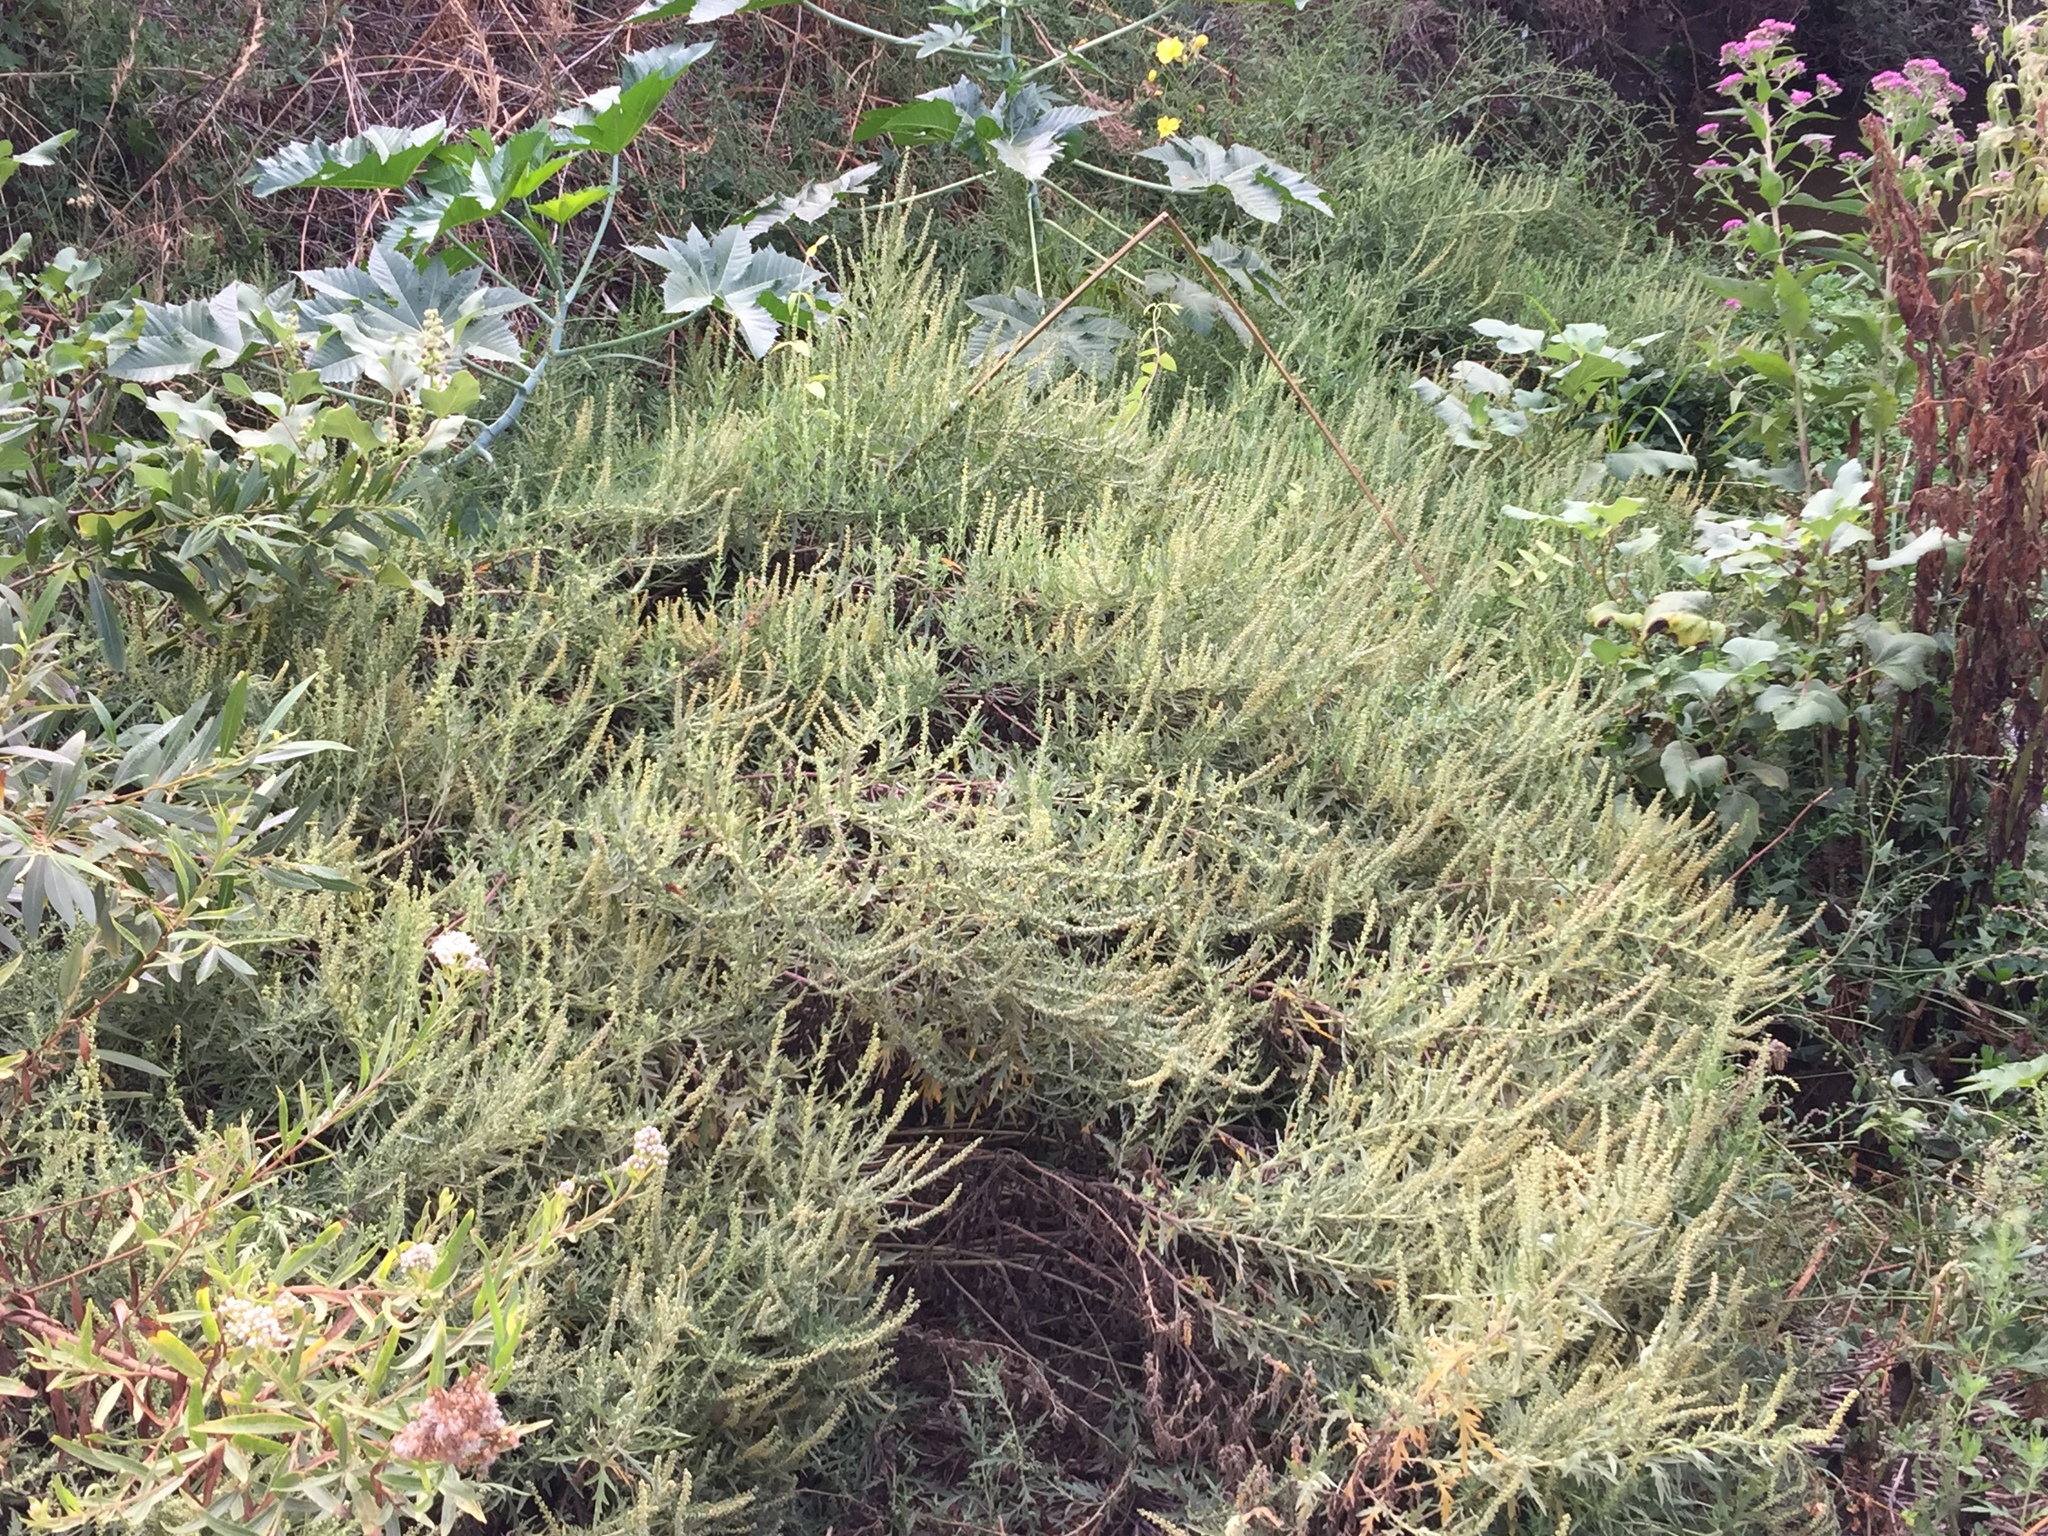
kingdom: Plantae
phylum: Tracheophyta
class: Magnoliopsida
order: Asterales
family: Asteraceae
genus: Ambrosia
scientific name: Ambrosia psilostachya
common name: Perennial ragweed
